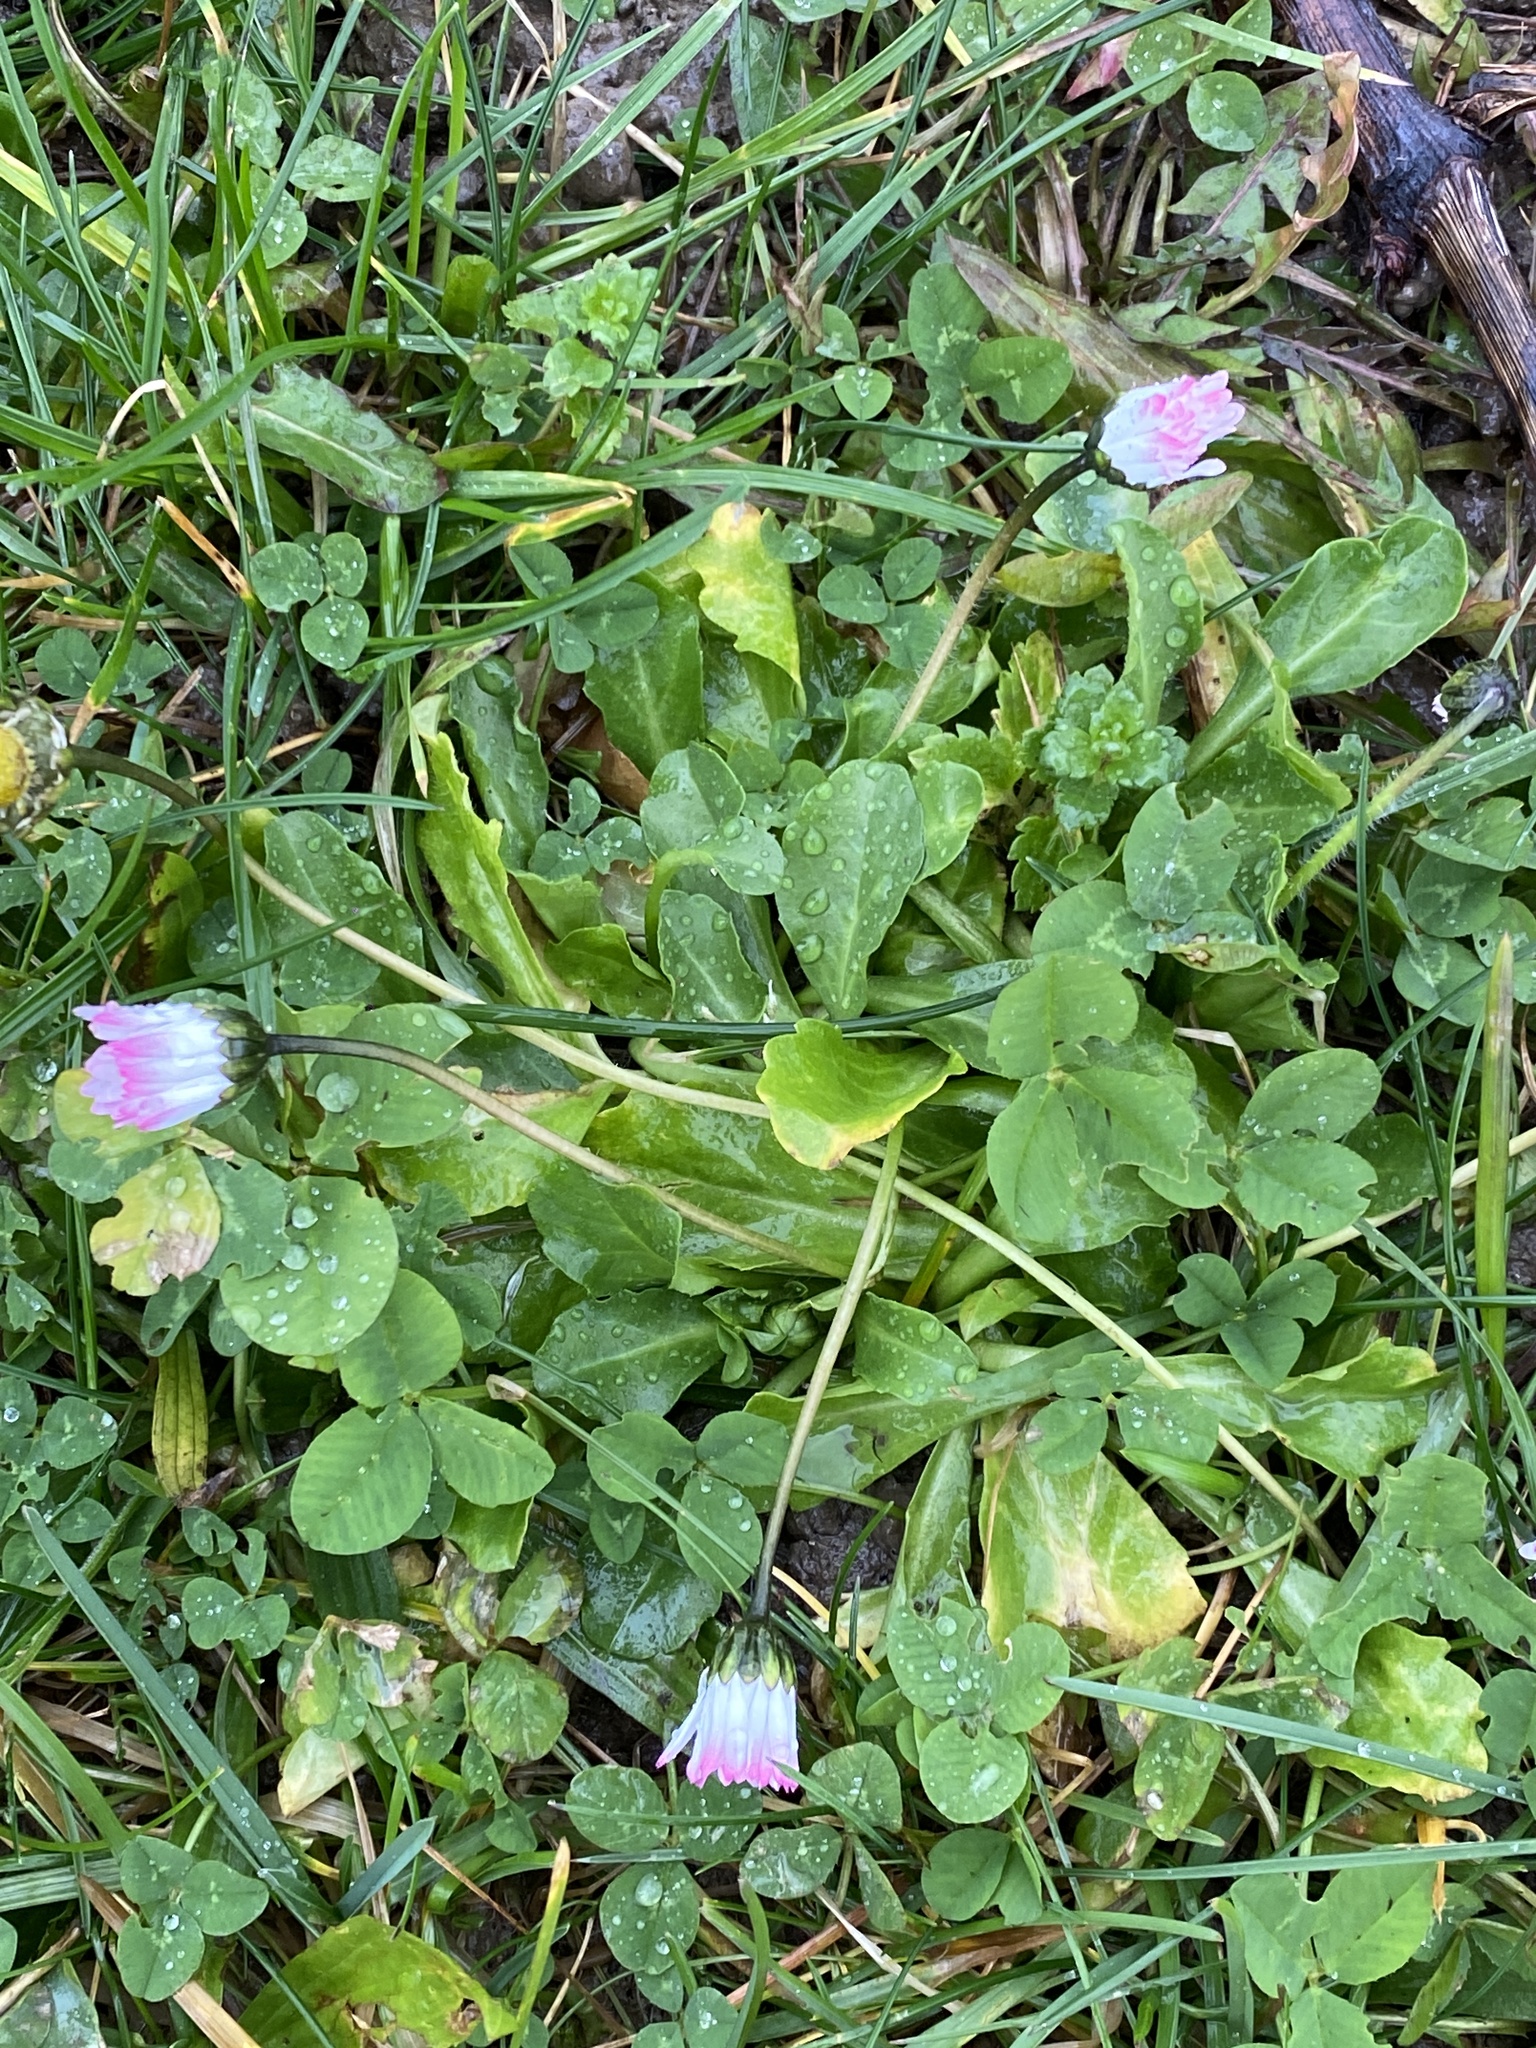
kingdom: Plantae
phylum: Tracheophyta
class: Magnoliopsida
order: Asterales
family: Asteraceae
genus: Bellis
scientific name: Bellis perennis
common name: Lawndaisy
